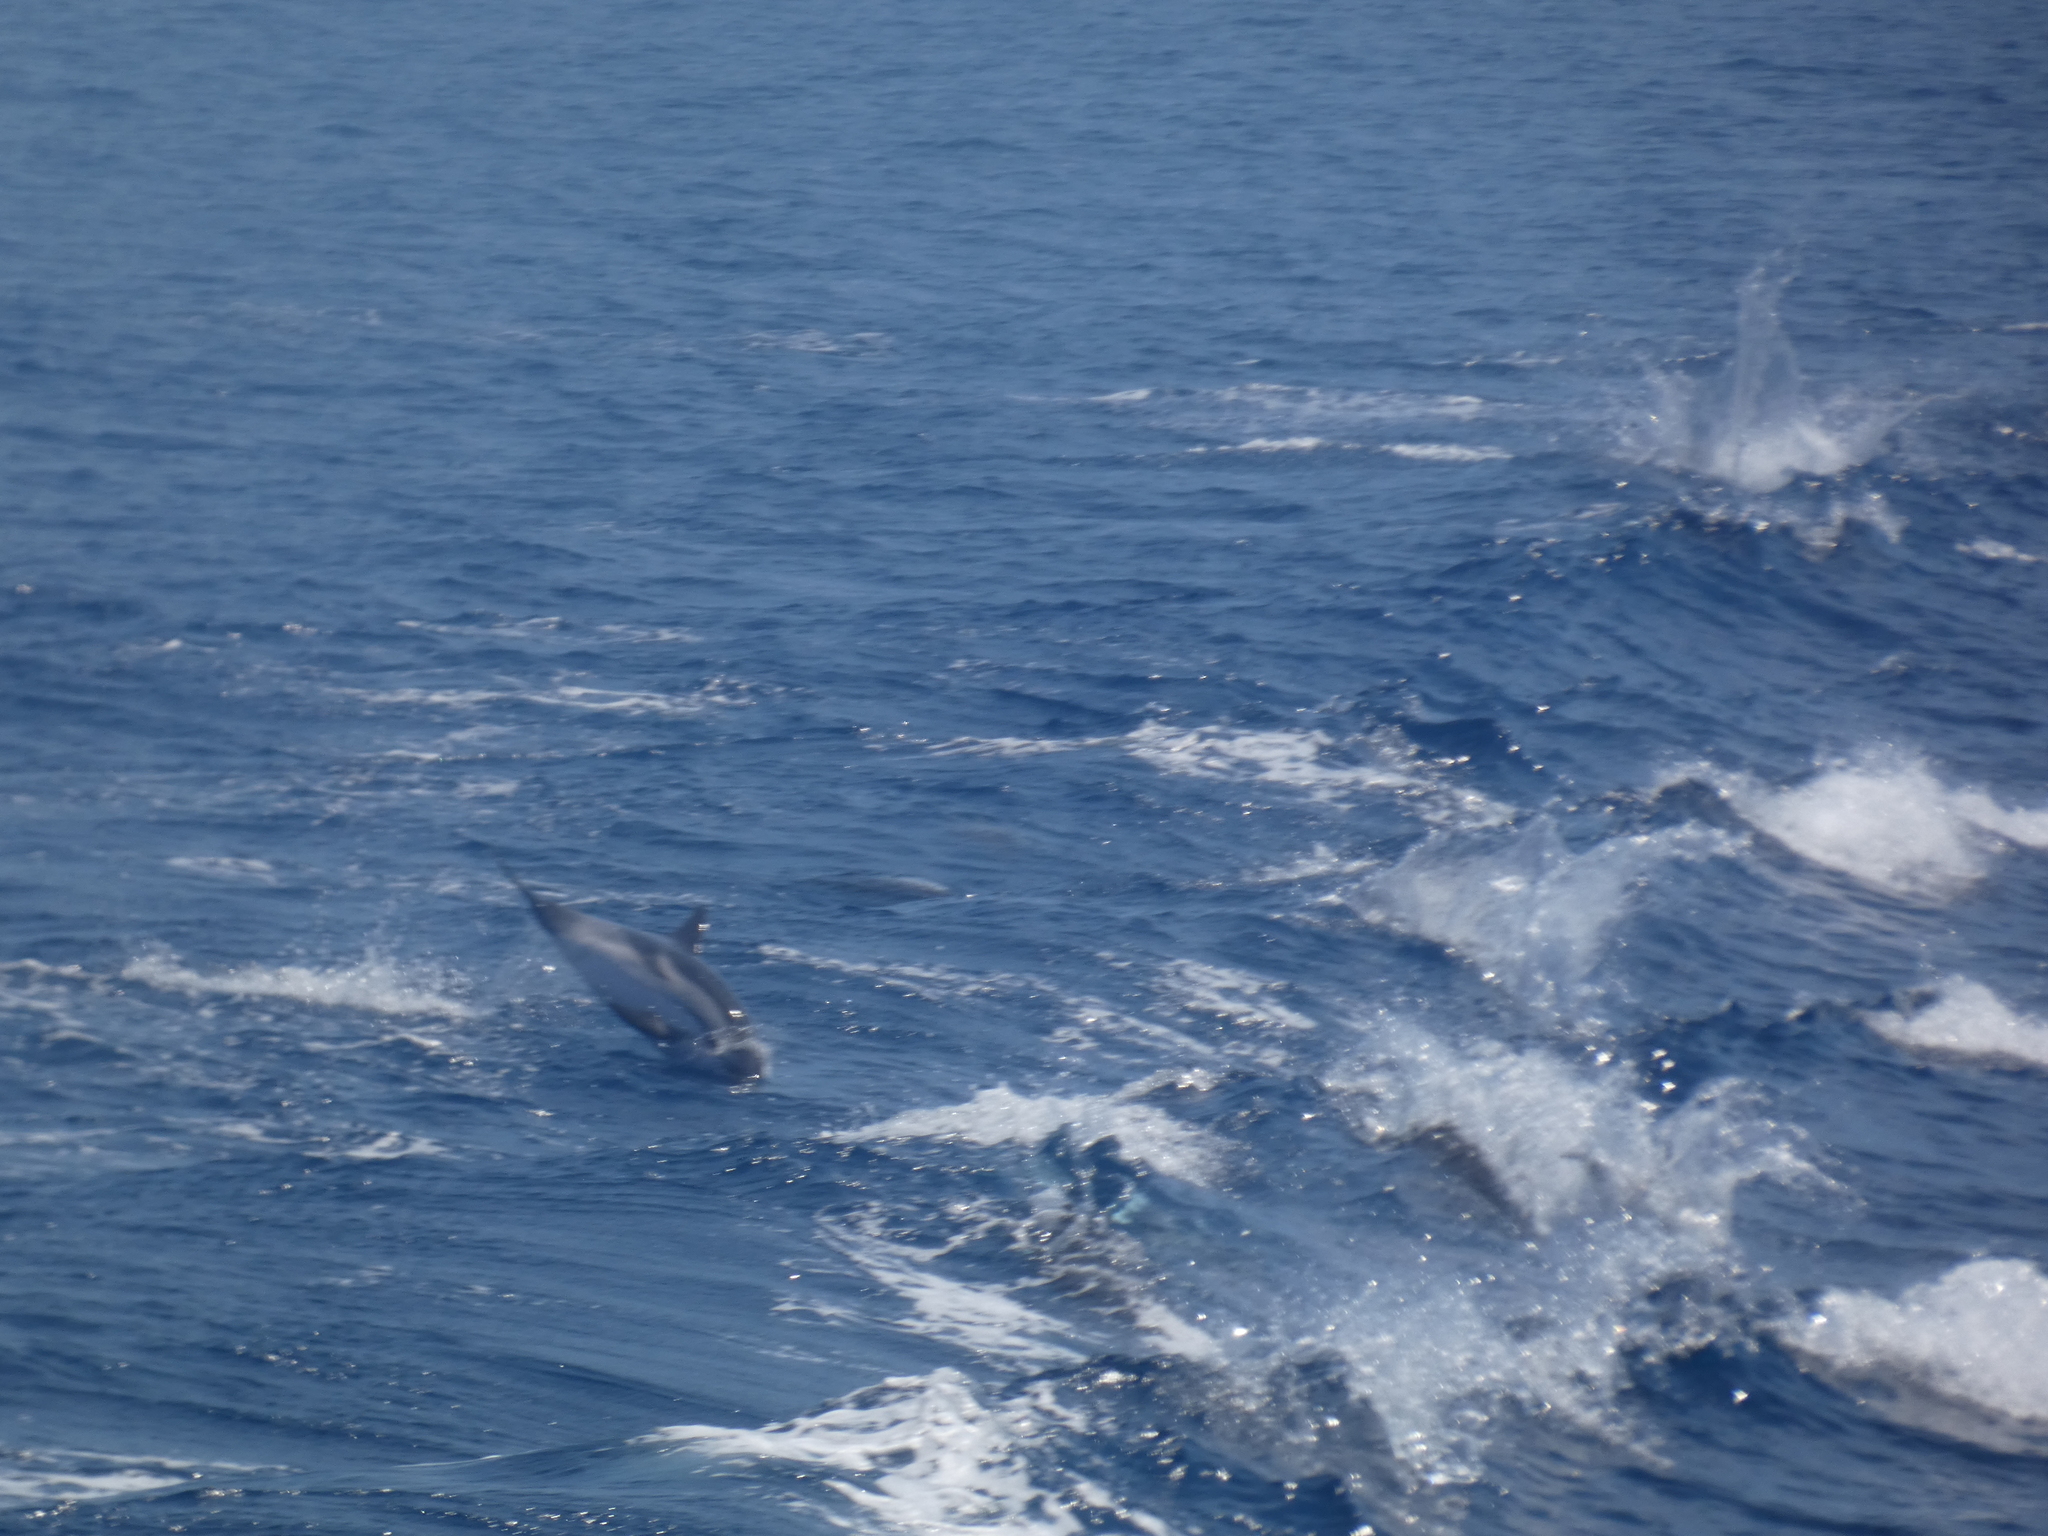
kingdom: Animalia
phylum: Chordata
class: Mammalia
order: Cetacea
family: Delphinidae
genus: Stenella
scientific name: Stenella coeruleoalba
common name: Striped dolphin
